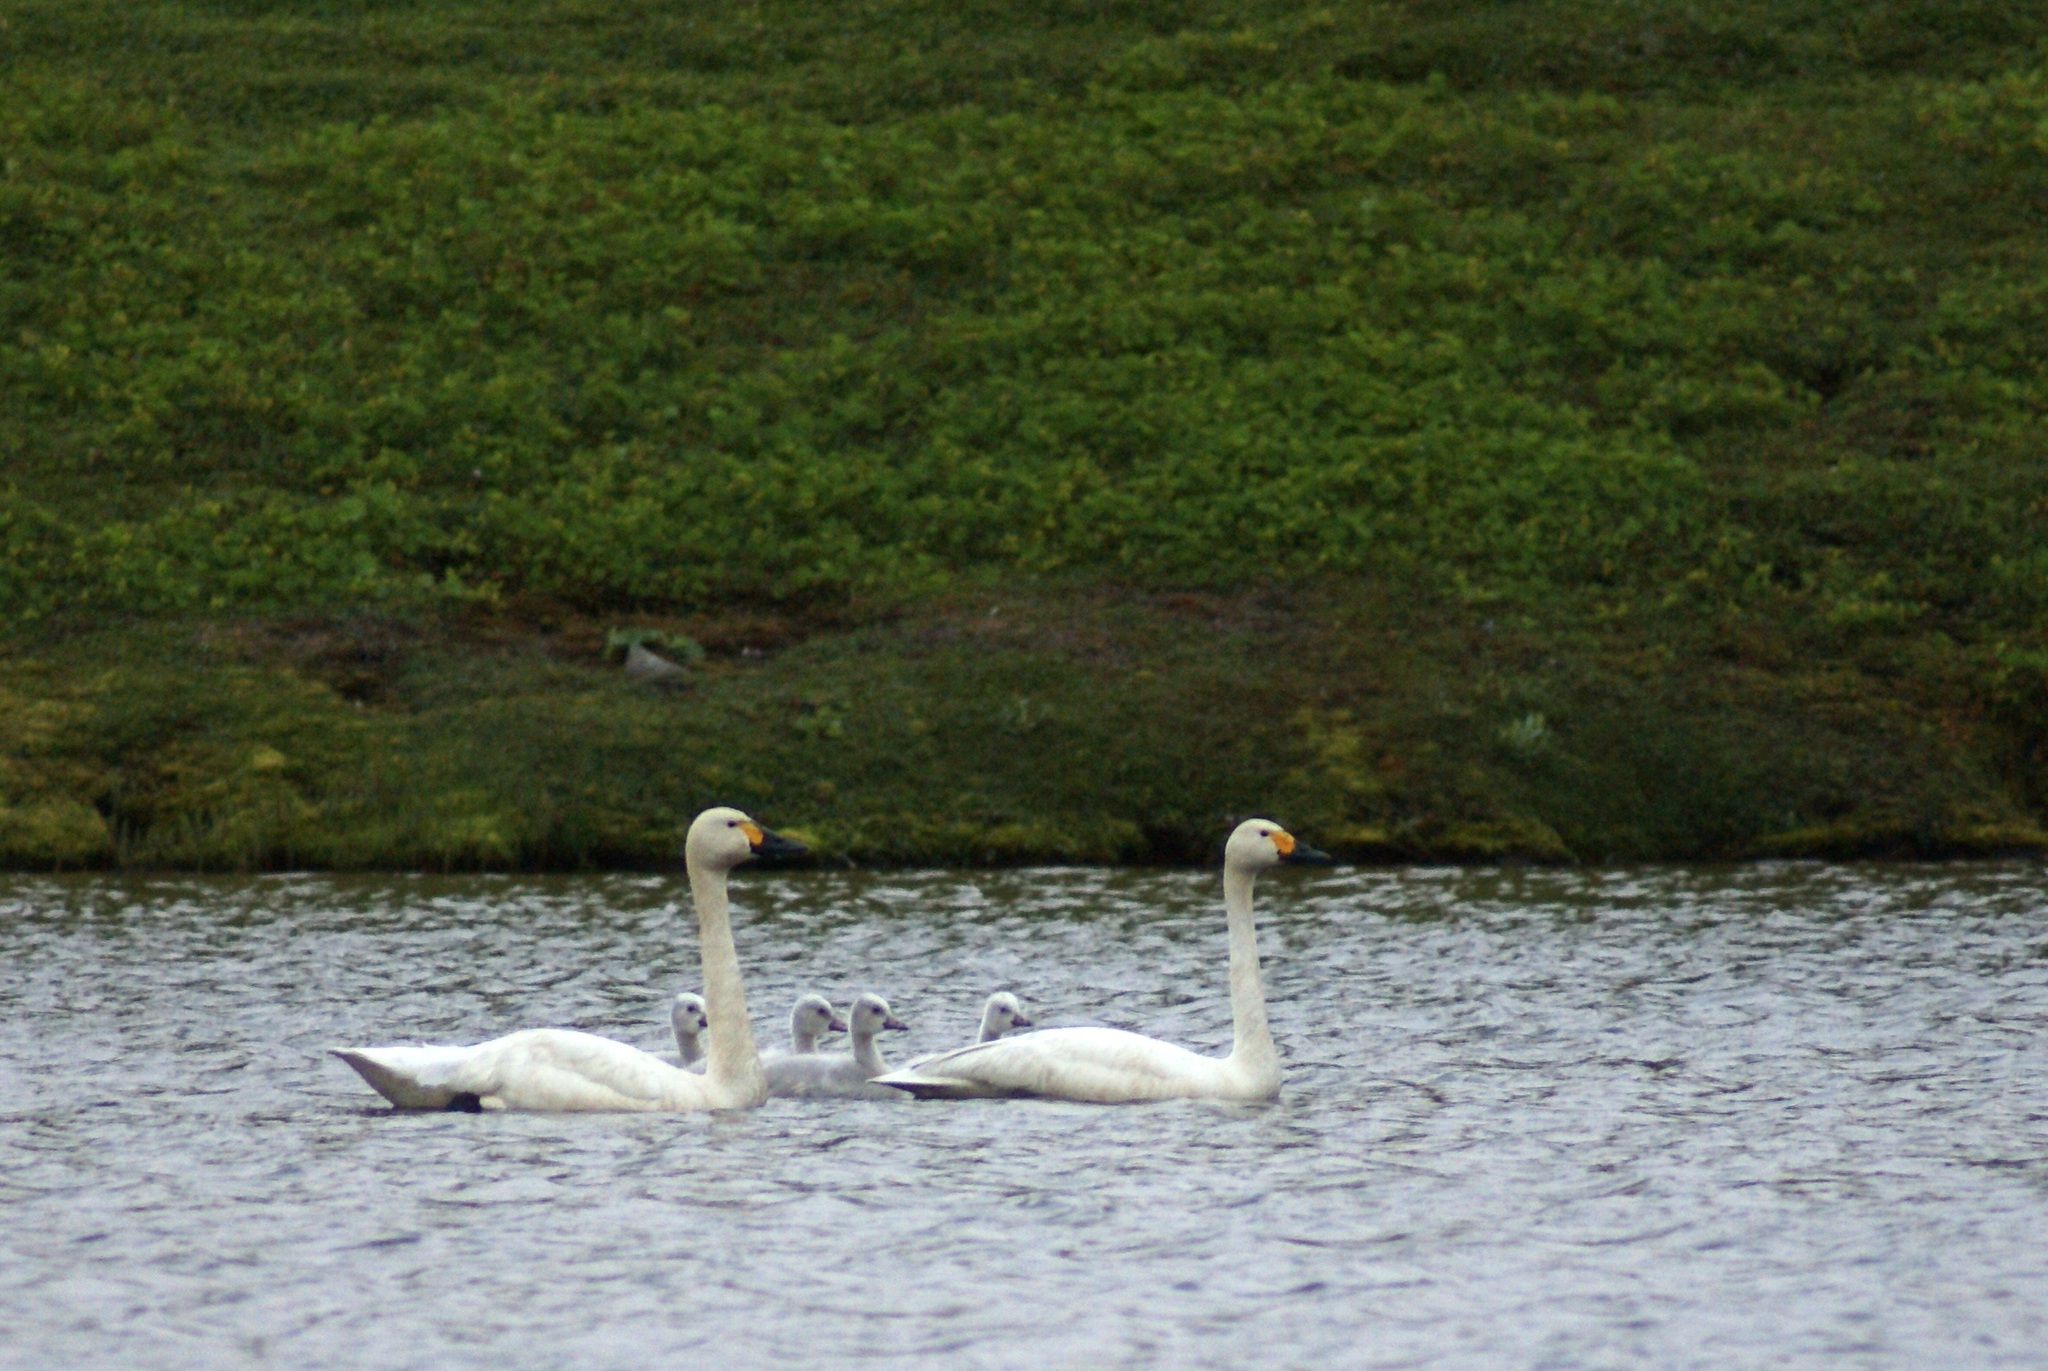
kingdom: Animalia
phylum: Chordata
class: Aves
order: Anseriformes
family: Anatidae
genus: Cygnus
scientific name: Cygnus columbianus
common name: Tundra swan
